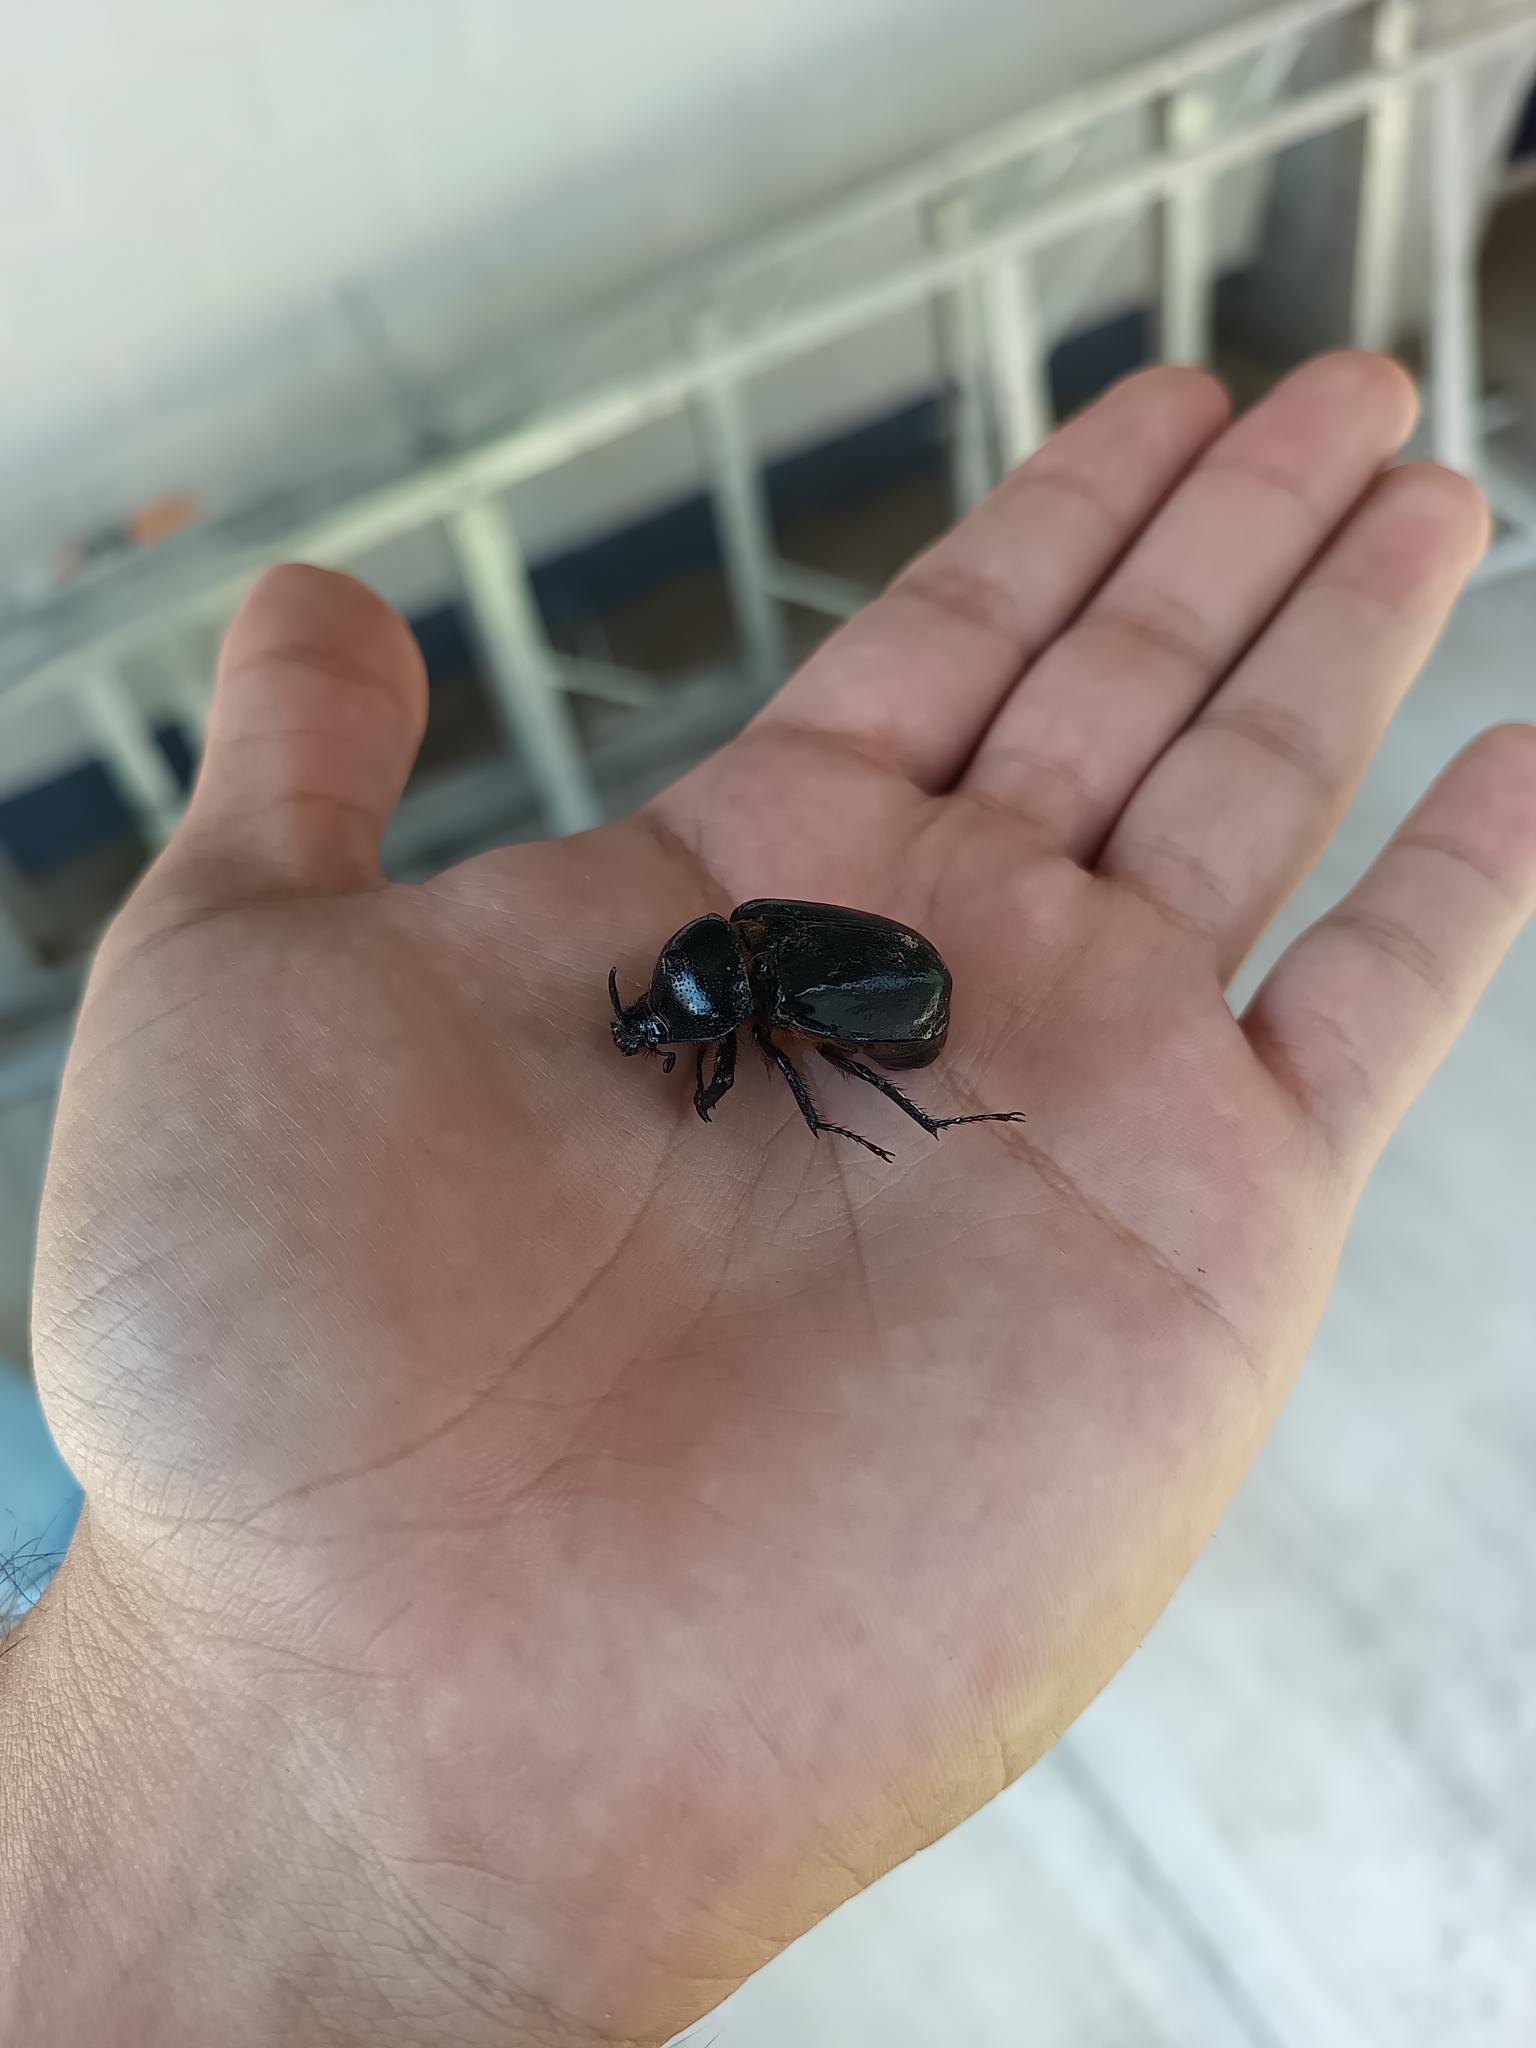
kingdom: Animalia
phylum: Arthropoda
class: Insecta
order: Coleoptera
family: Scarabaeidae
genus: Golofa
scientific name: Golofa pusilla
